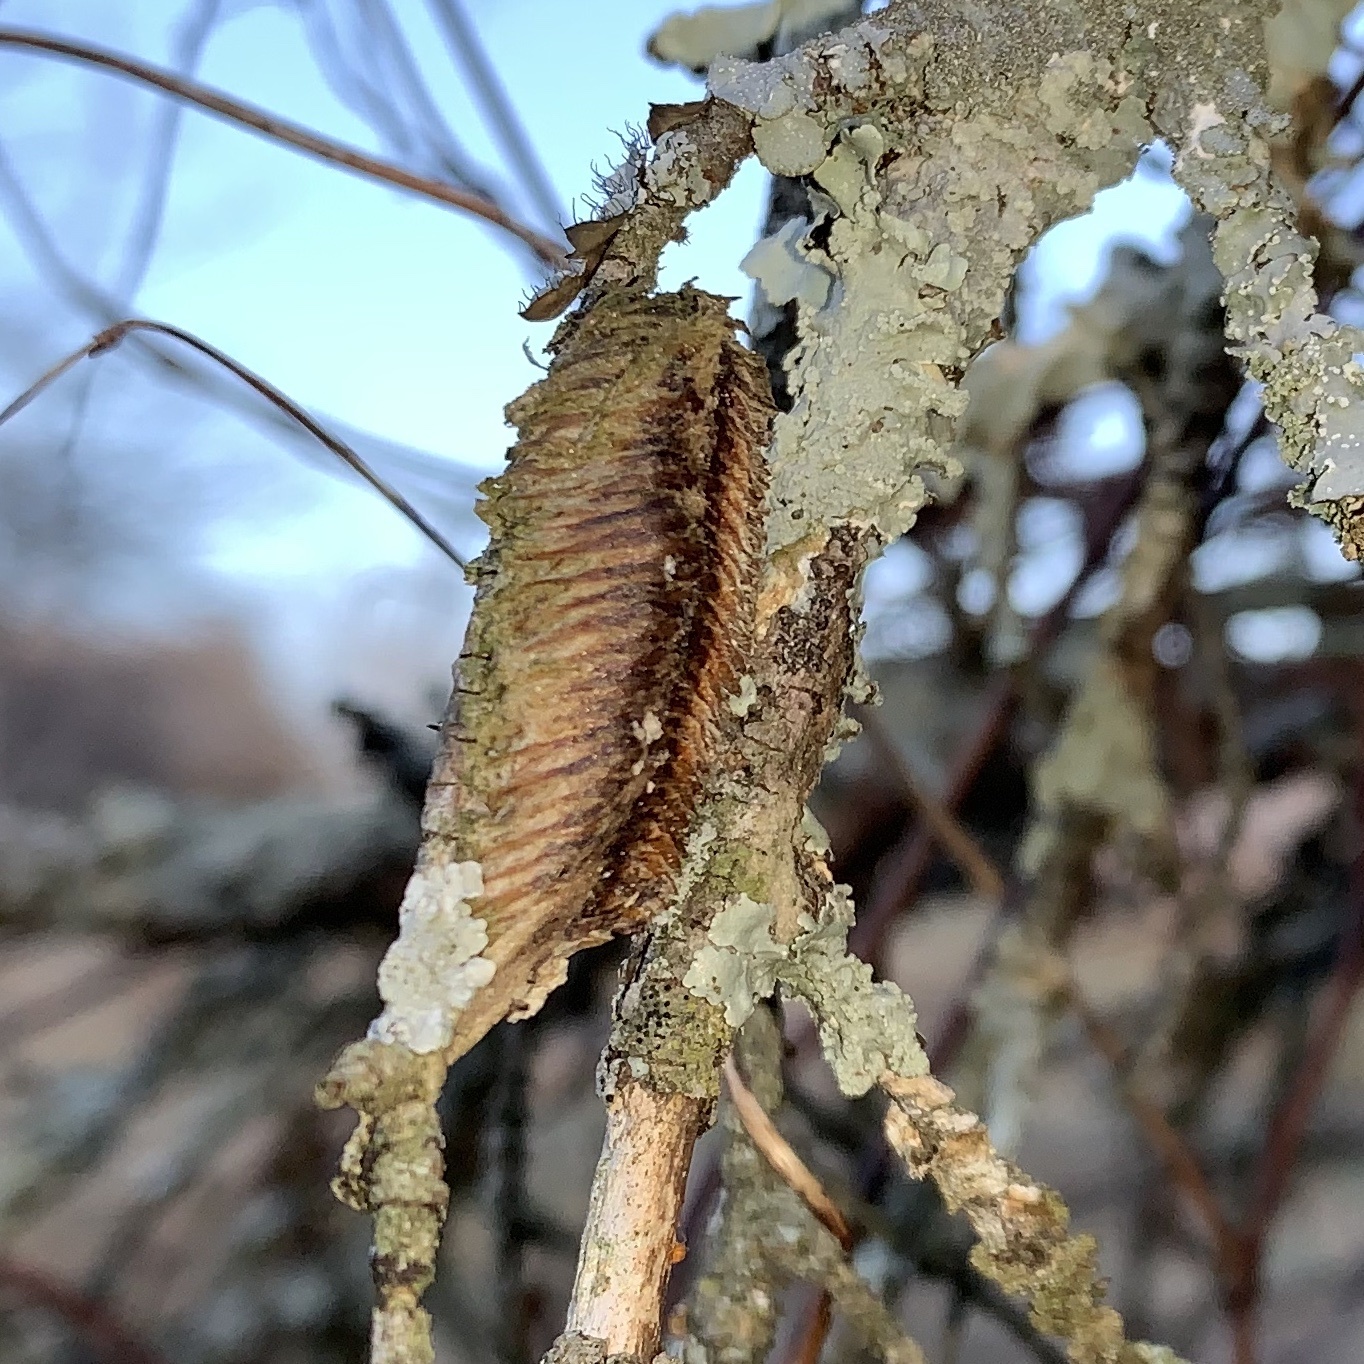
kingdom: Animalia
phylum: Arthropoda
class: Insecta
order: Mantodea
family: Mantidae
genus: Stagmomantis
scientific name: Stagmomantis carolina
